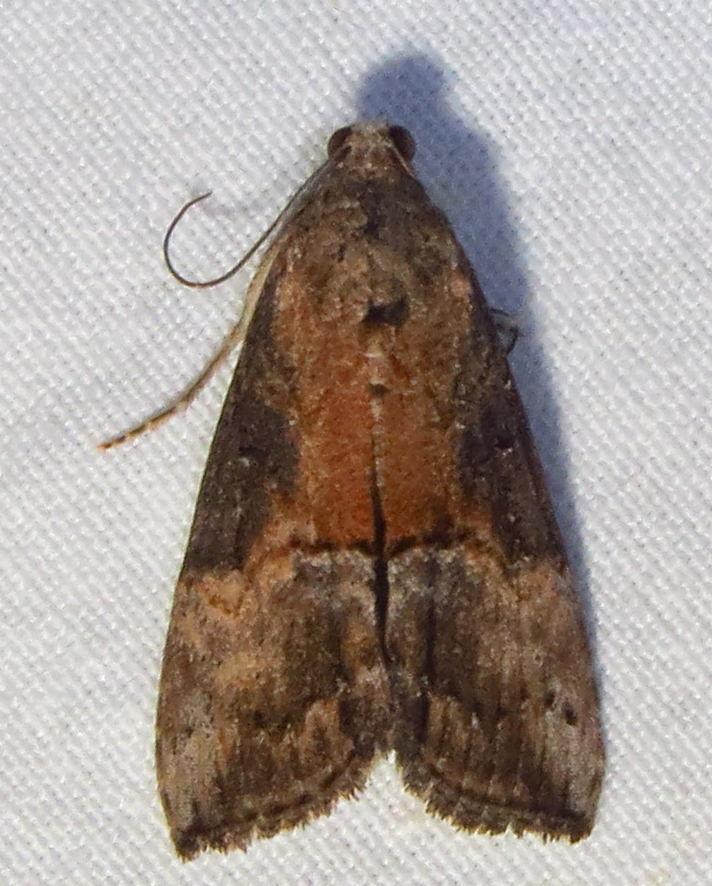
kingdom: Animalia
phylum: Arthropoda
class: Insecta
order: Lepidoptera
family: Erebidae
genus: Hypena
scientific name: Hypena scabra
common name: Green cloverworm
